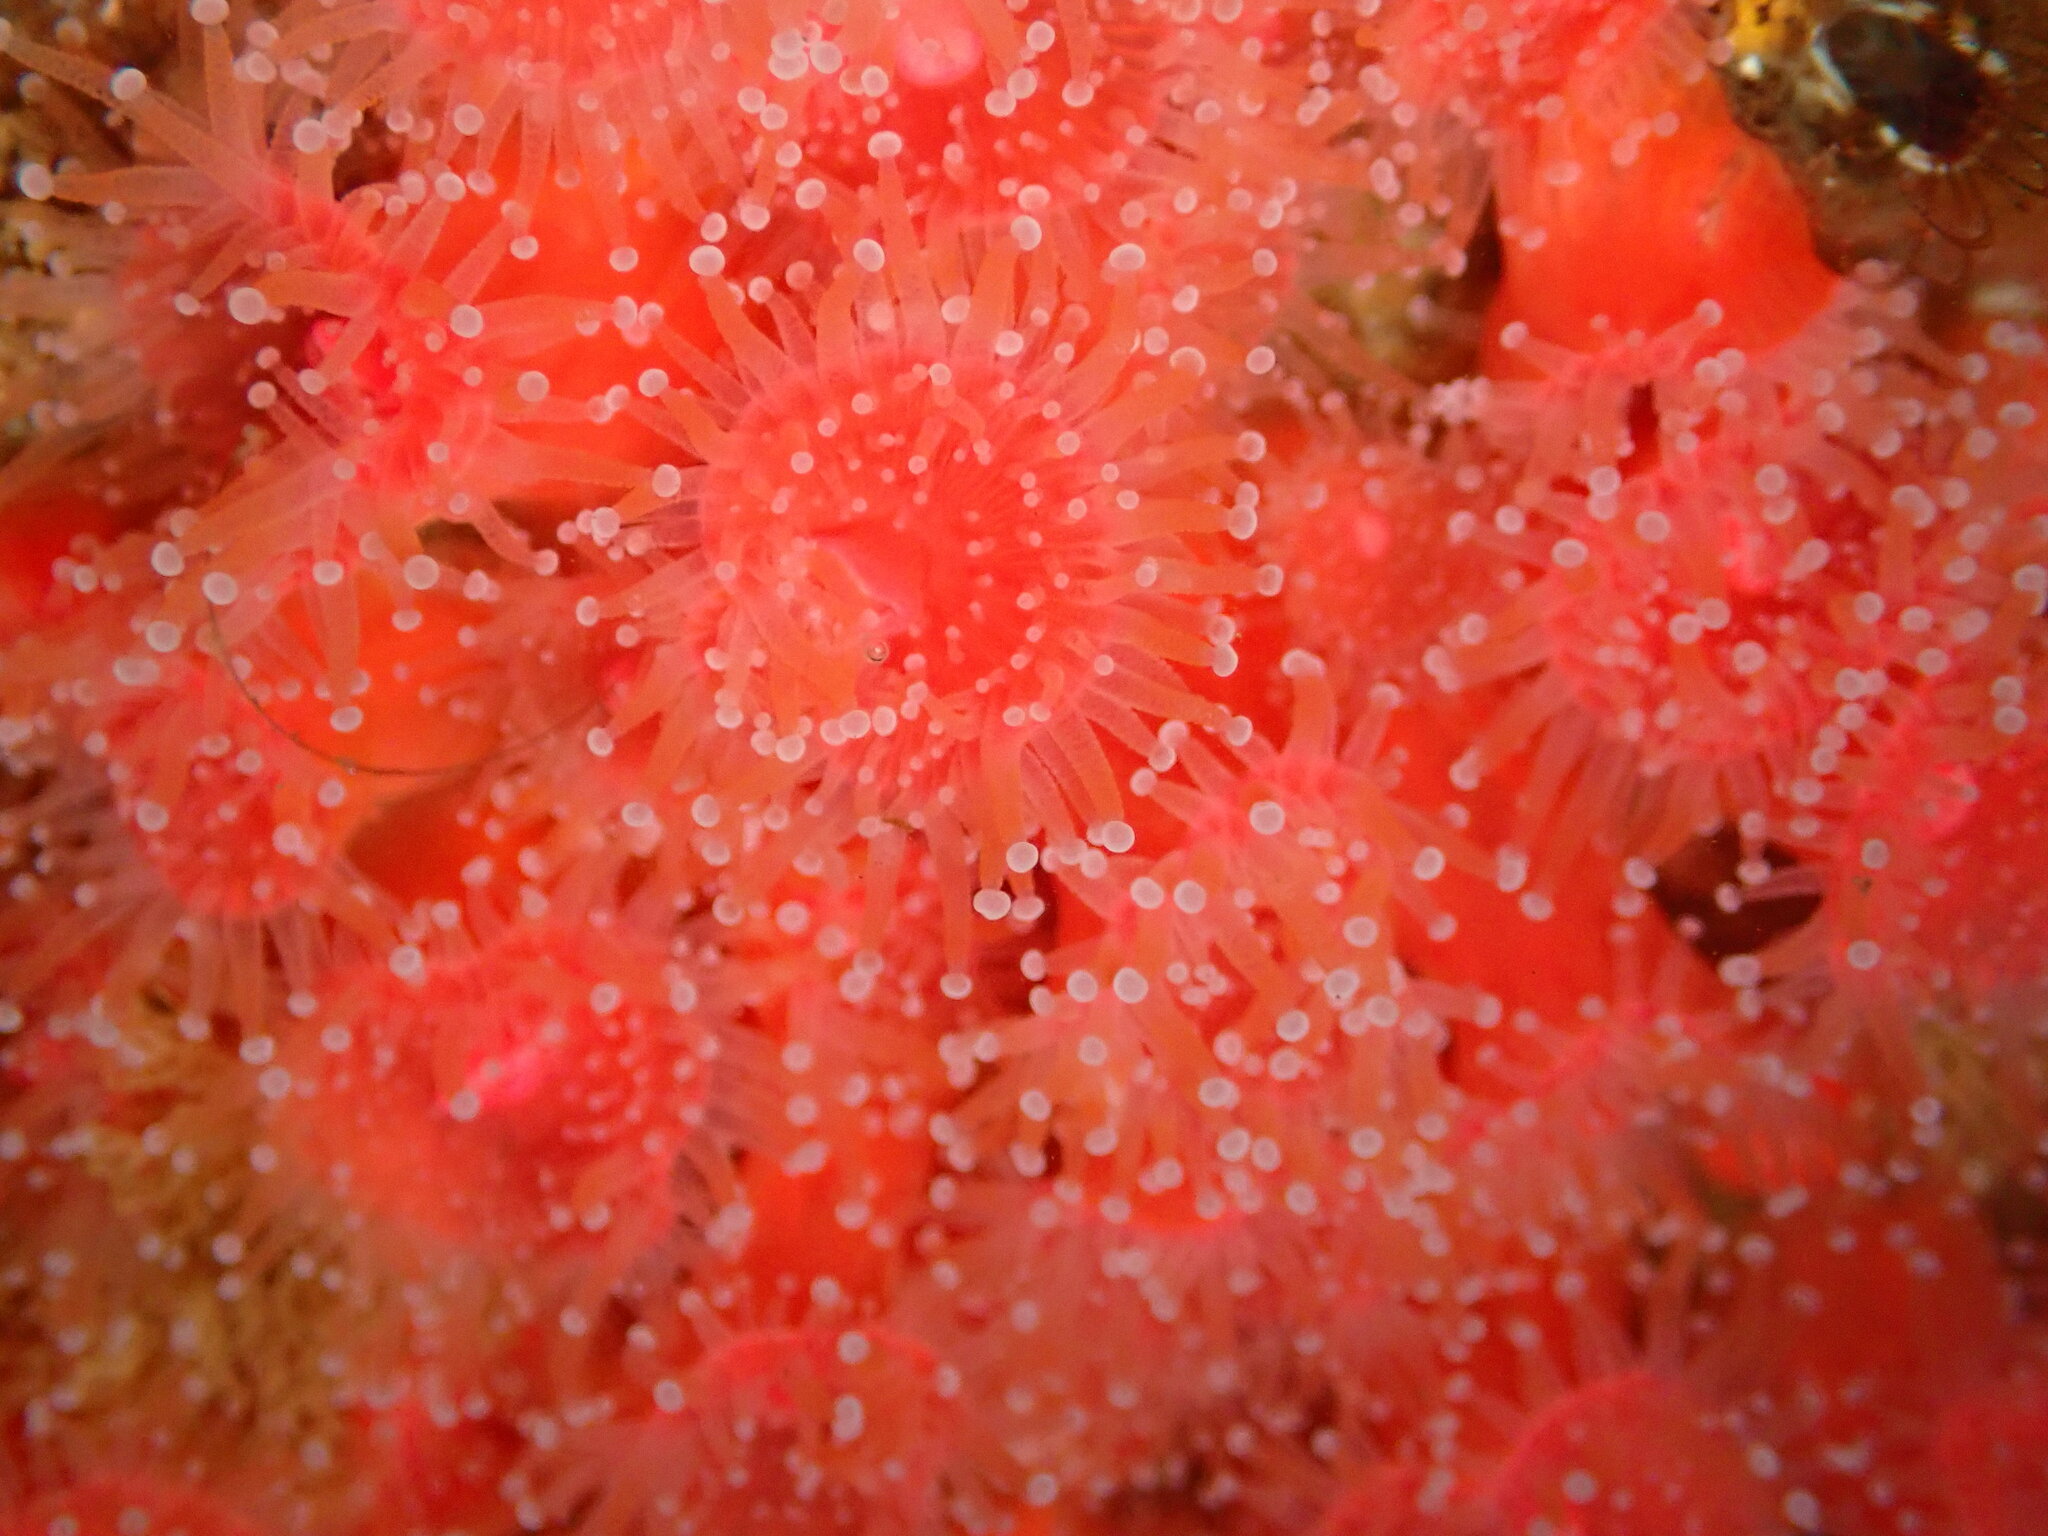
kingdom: Animalia
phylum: Cnidaria
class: Anthozoa
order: Corallimorpharia
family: Corallimorphidae
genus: Corynactis
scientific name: Corynactis californica
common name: Strawberry corallimorpharian
